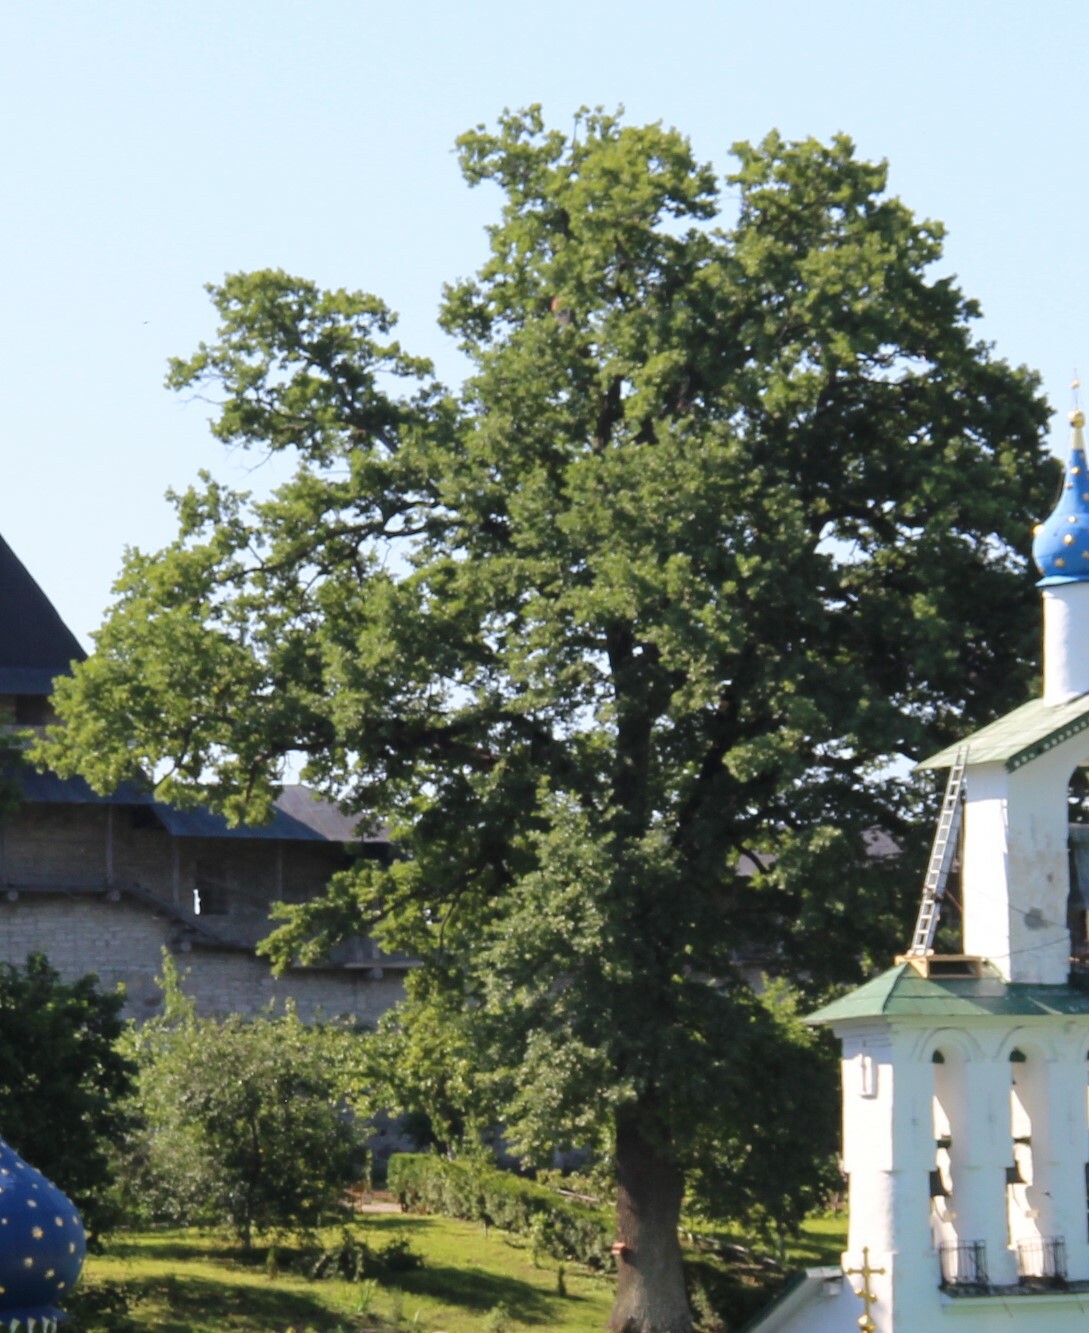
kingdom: Plantae
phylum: Tracheophyta
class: Magnoliopsida
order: Fagales
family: Fagaceae
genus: Quercus
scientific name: Quercus robur
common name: Pedunculate oak
